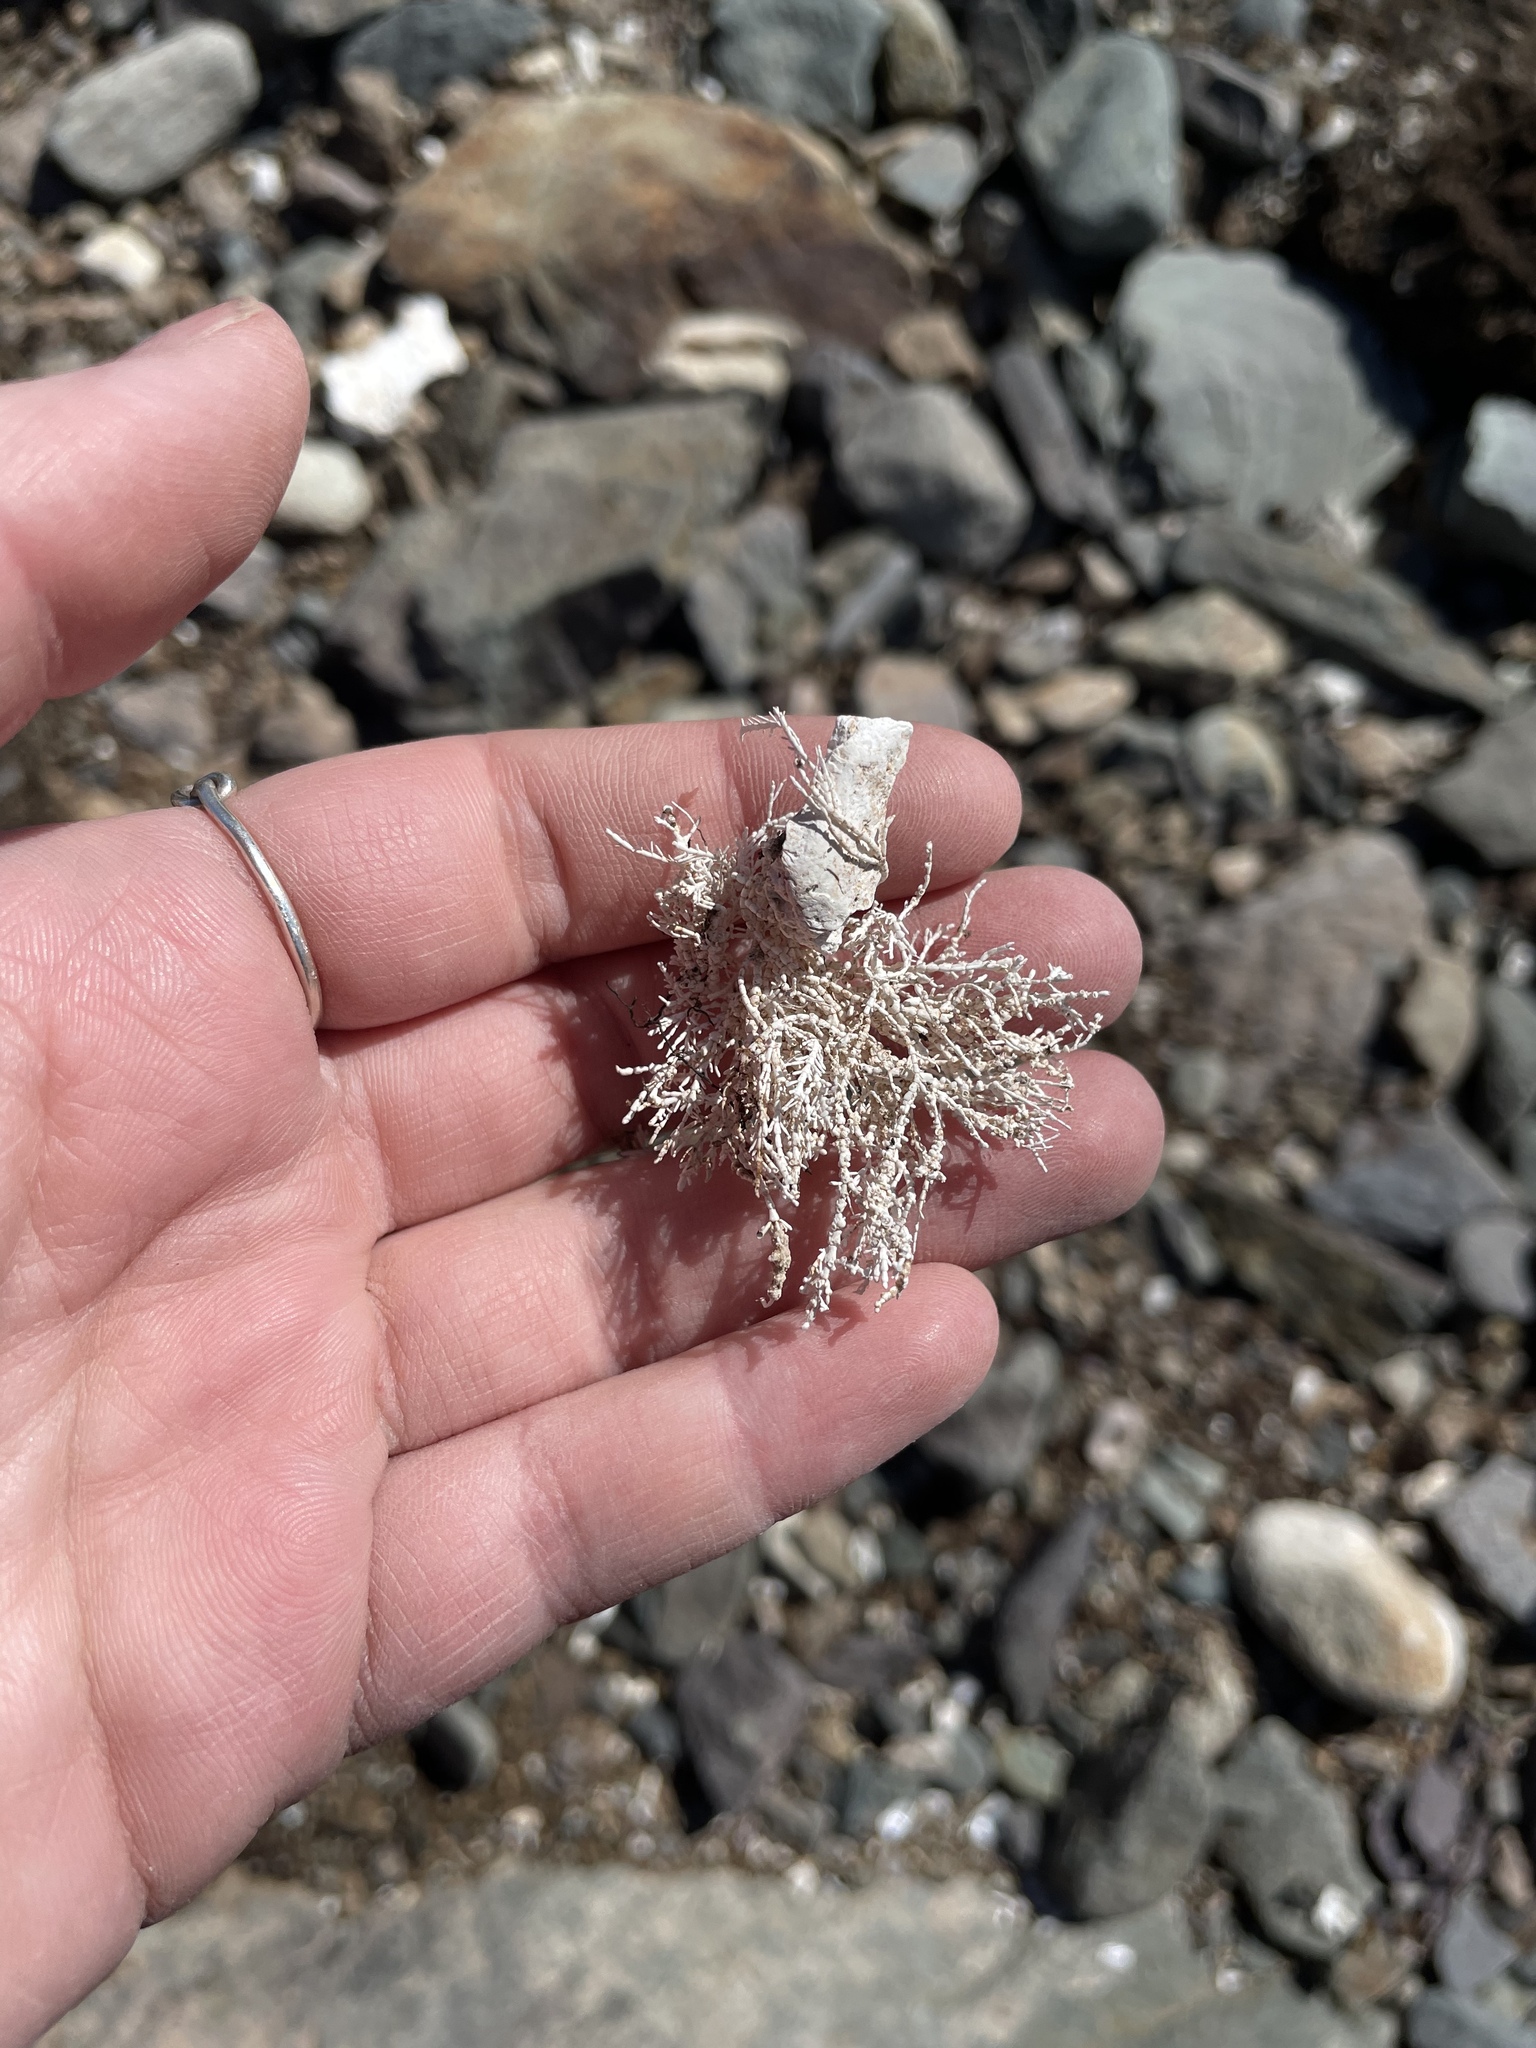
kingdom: Plantae
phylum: Rhodophyta
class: Florideophyceae
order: Corallinales
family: Corallinaceae
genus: Corallina
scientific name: Corallina officinalis
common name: Coral weed
